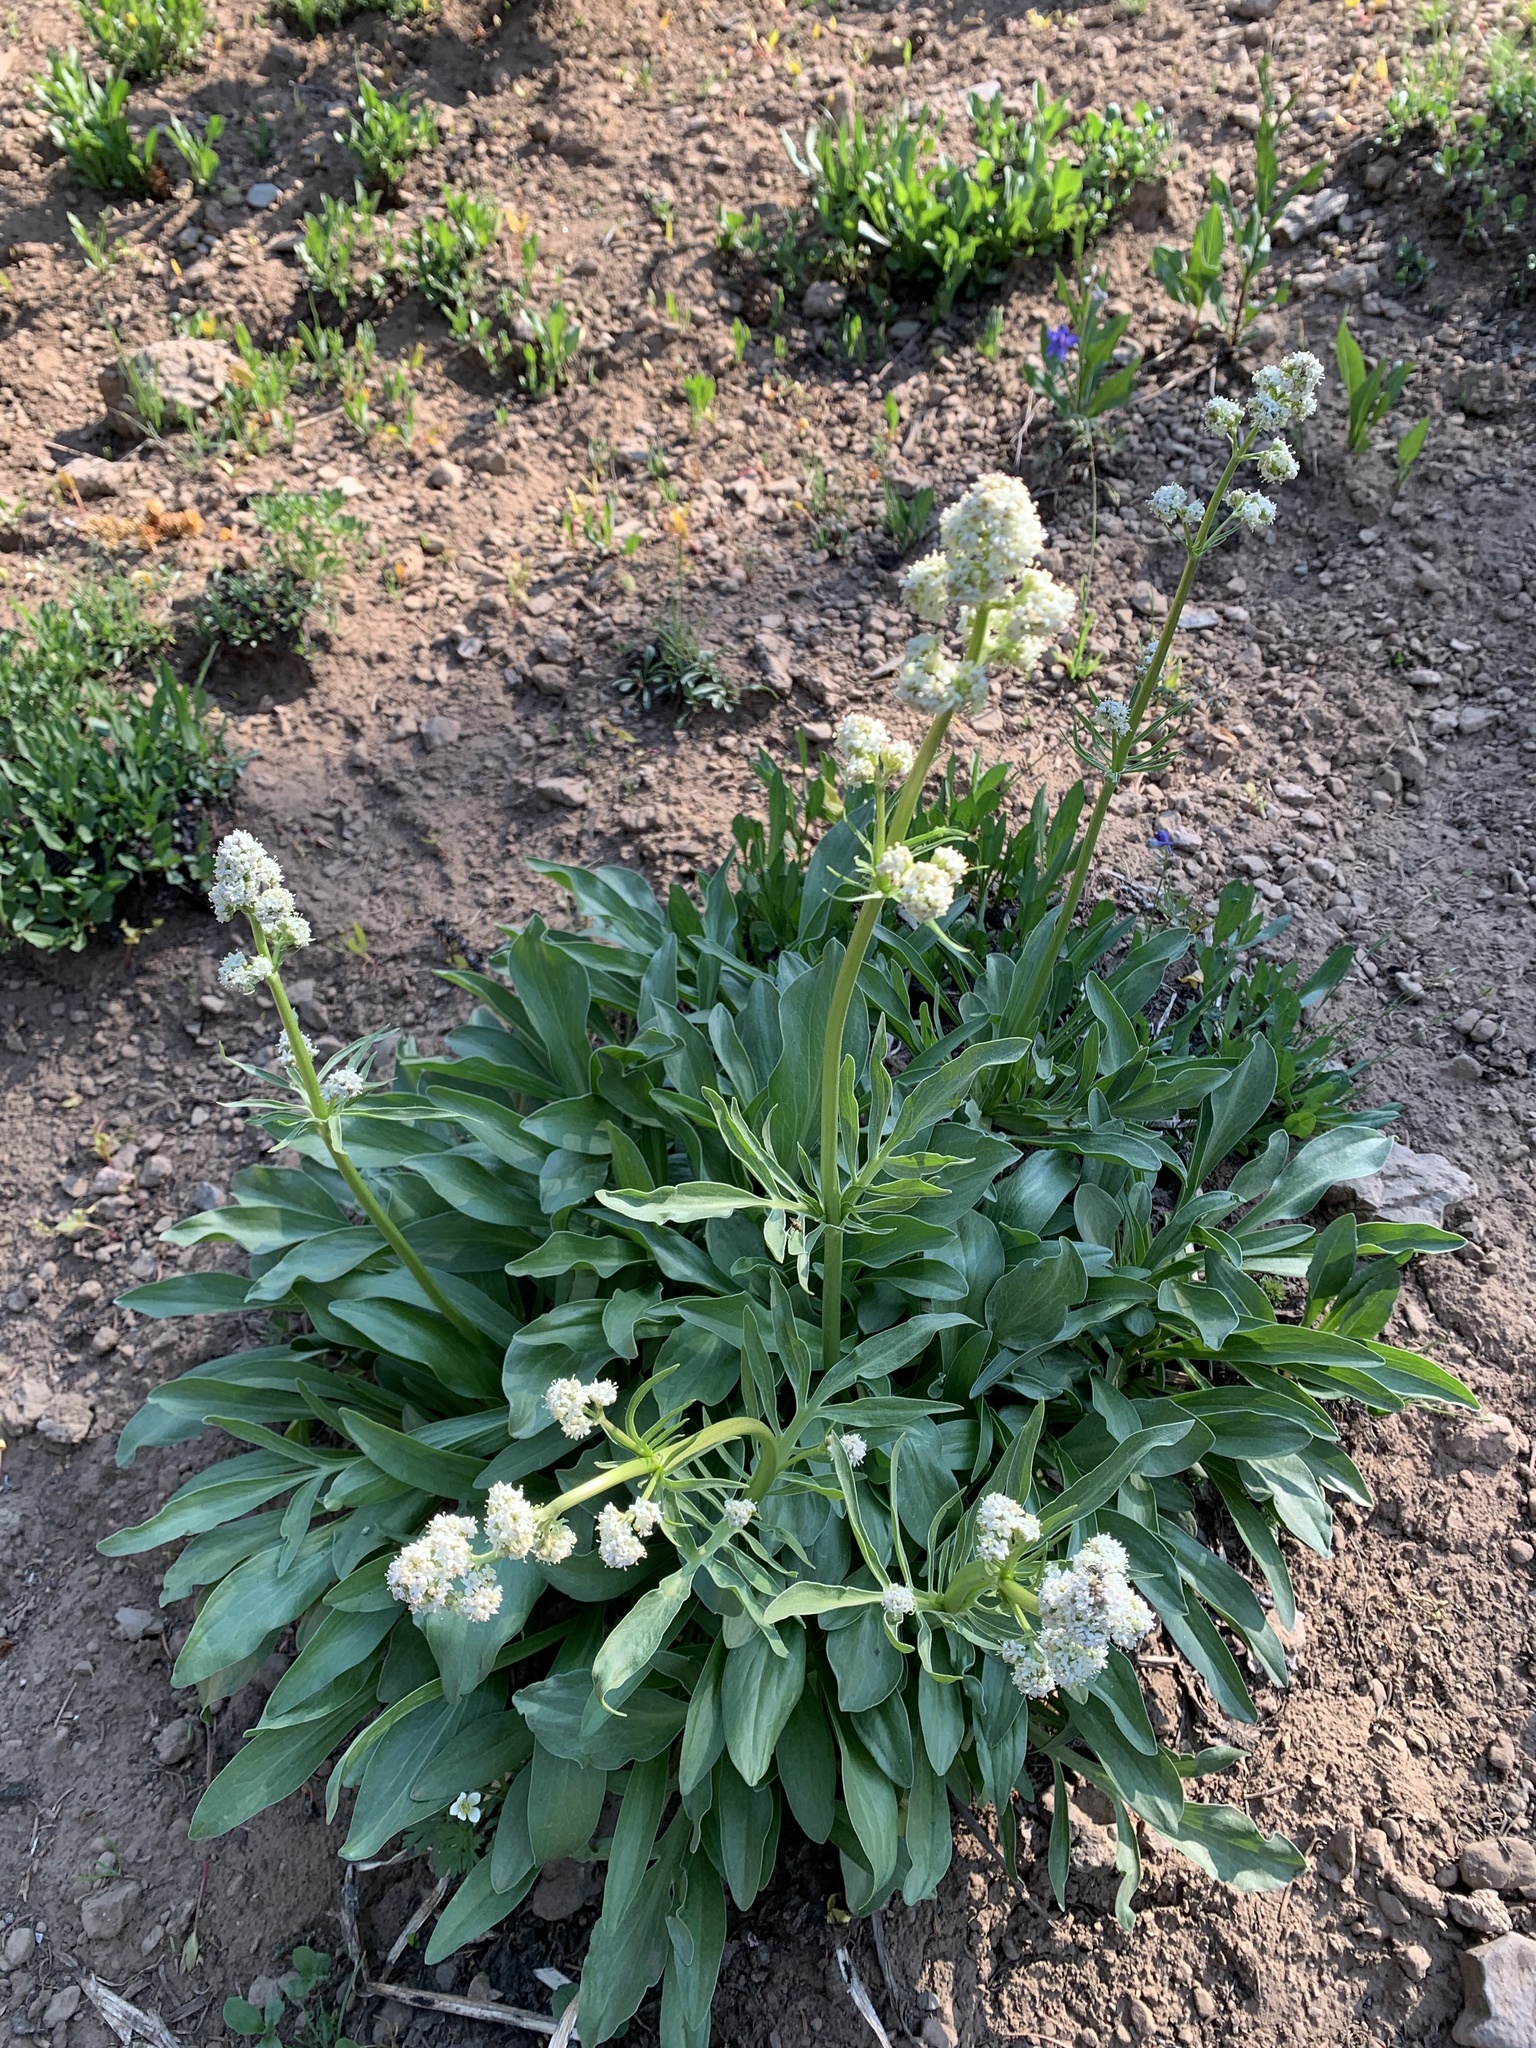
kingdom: Plantae
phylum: Tracheophyta
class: Magnoliopsida
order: Dipsacales
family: Caprifoliaceae
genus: Valeriana
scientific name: Valeriana edulis
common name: Taproot valerian
